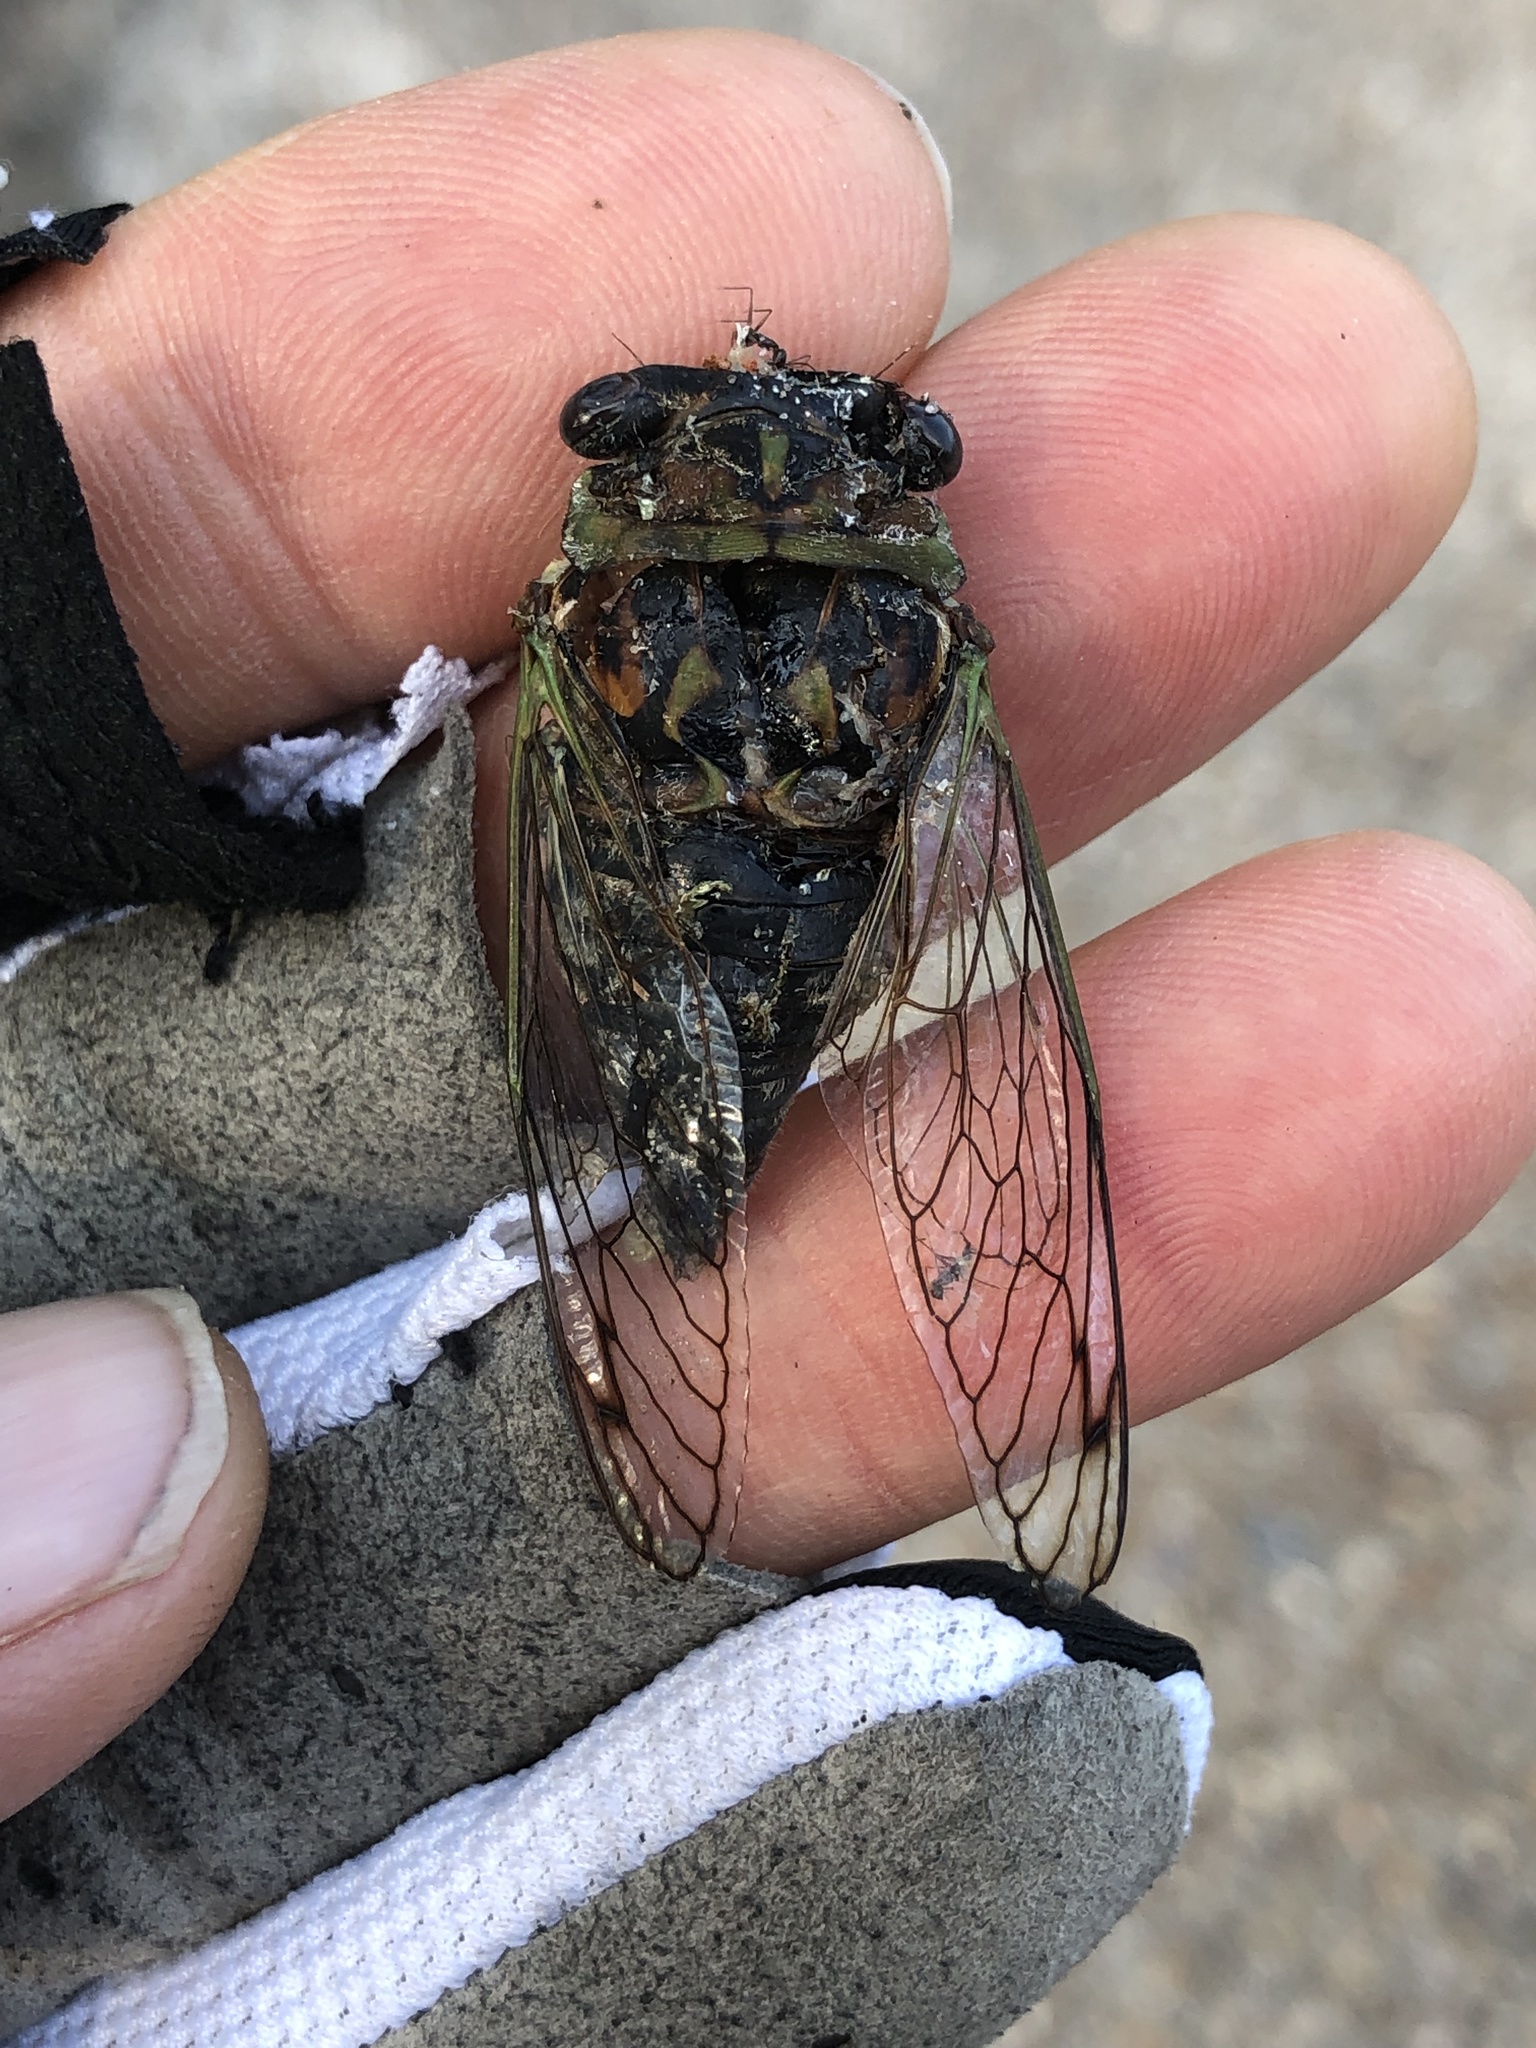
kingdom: Animalia
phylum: Arthropoda
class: Insecta
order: Hemiptera
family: Cicadidae
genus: Neotibicen
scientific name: Neotibicen davisi
